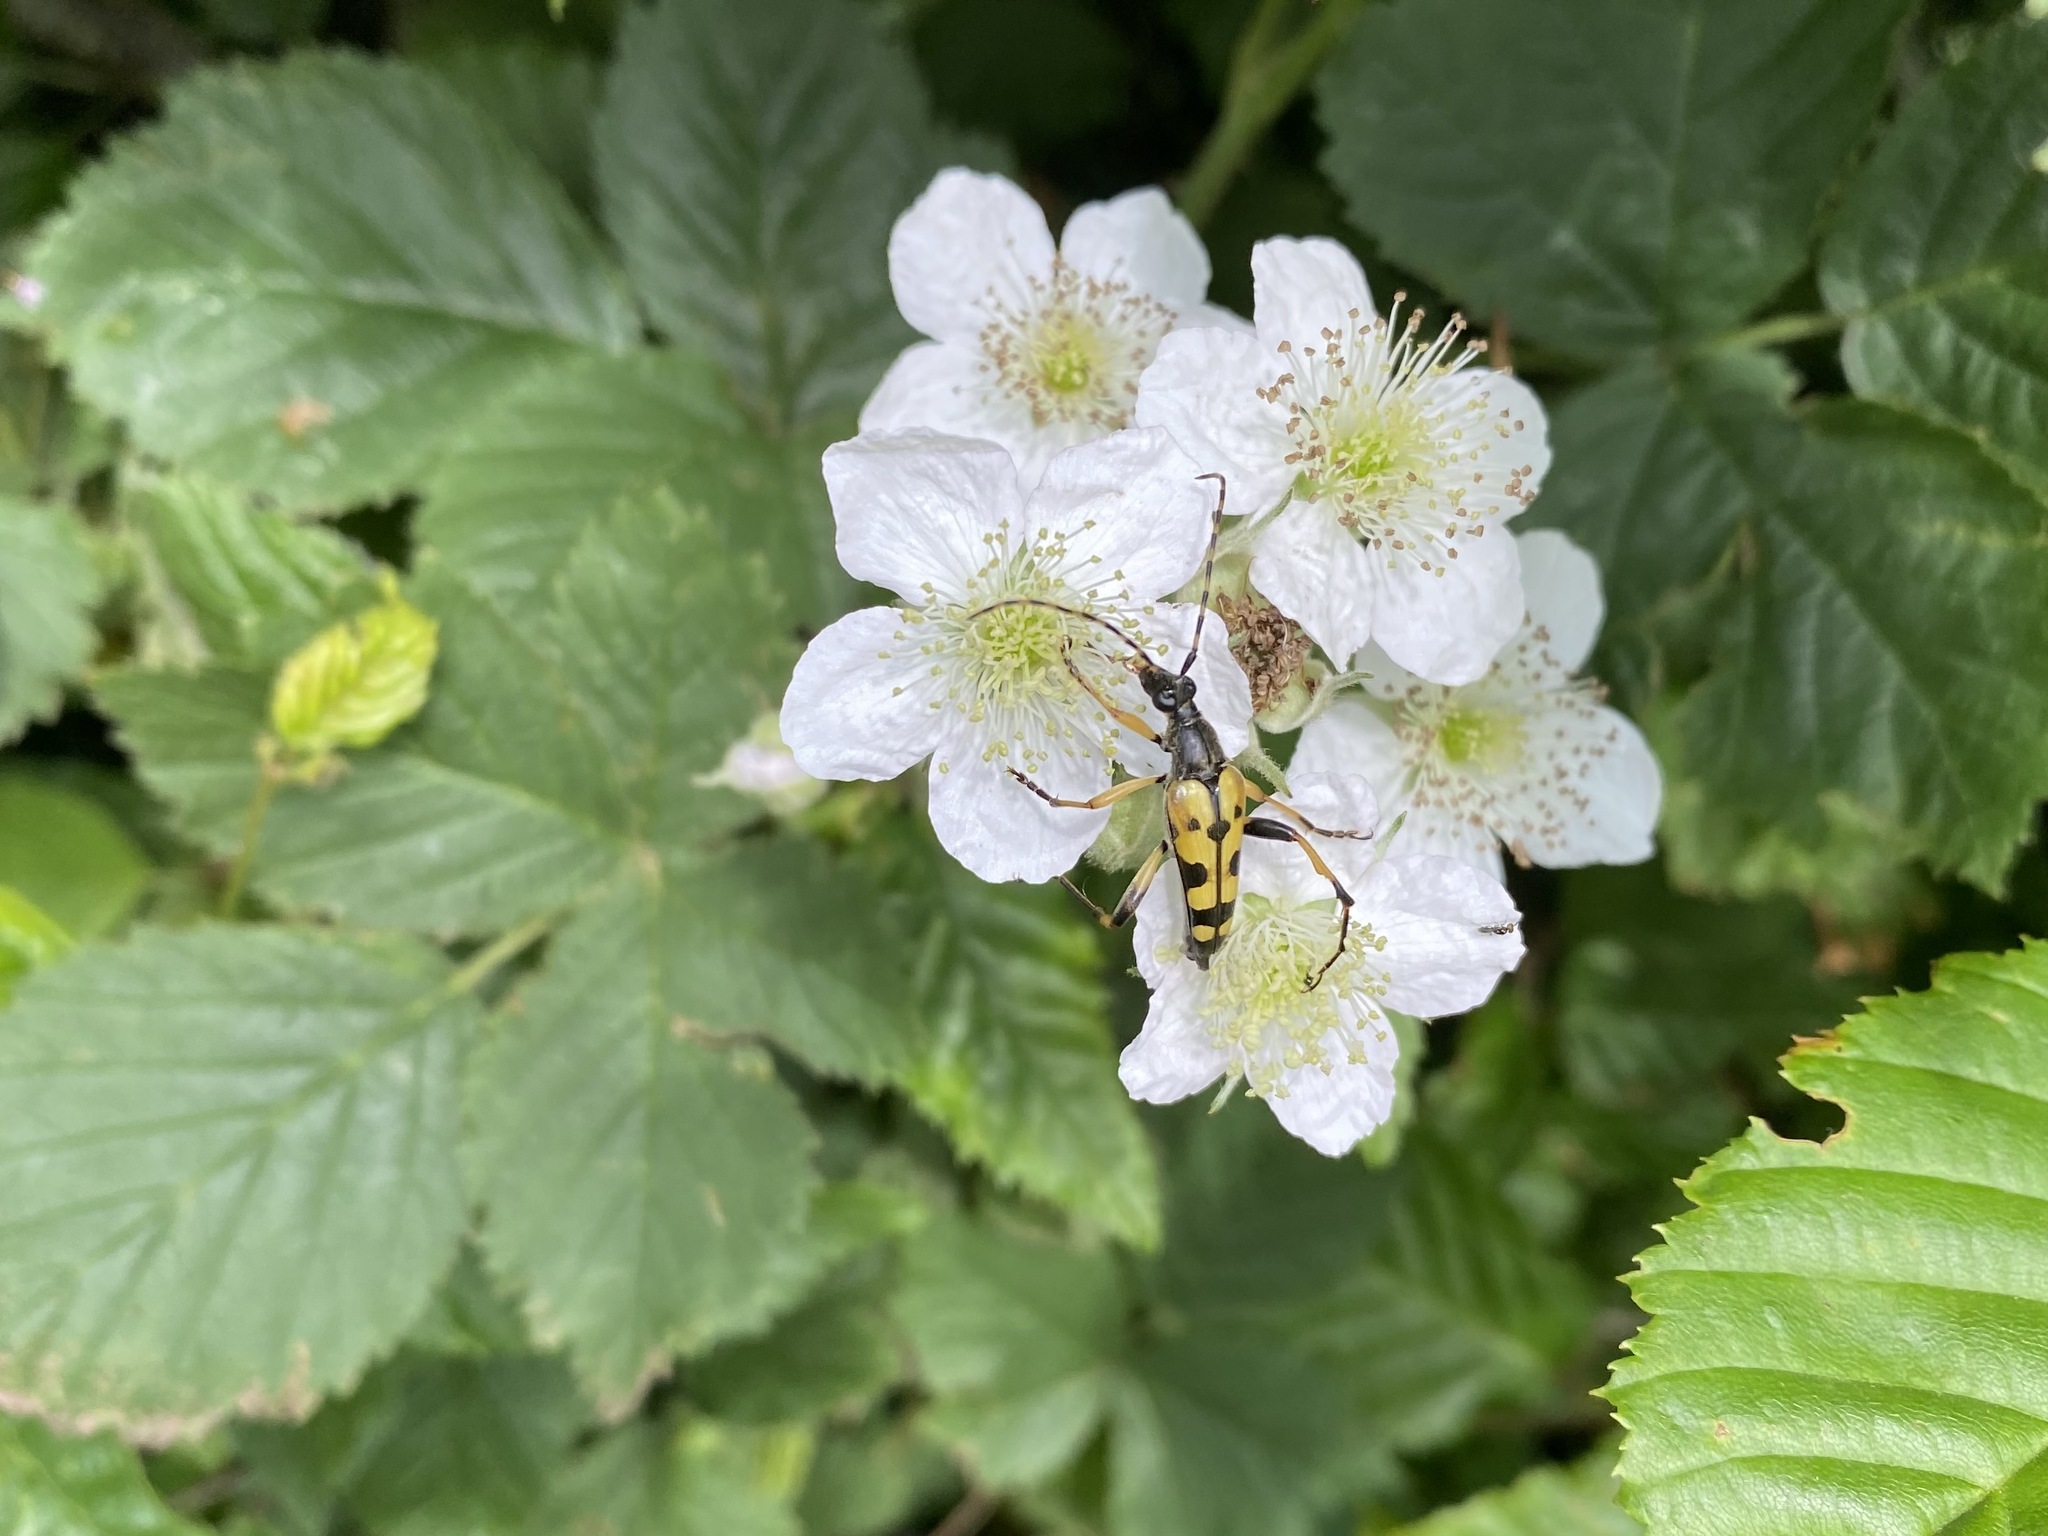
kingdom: Animalia
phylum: Arthropoda
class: Insecta
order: Coleoptera
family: Cerambycidae
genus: Rutpela
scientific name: Rutpela maculata
